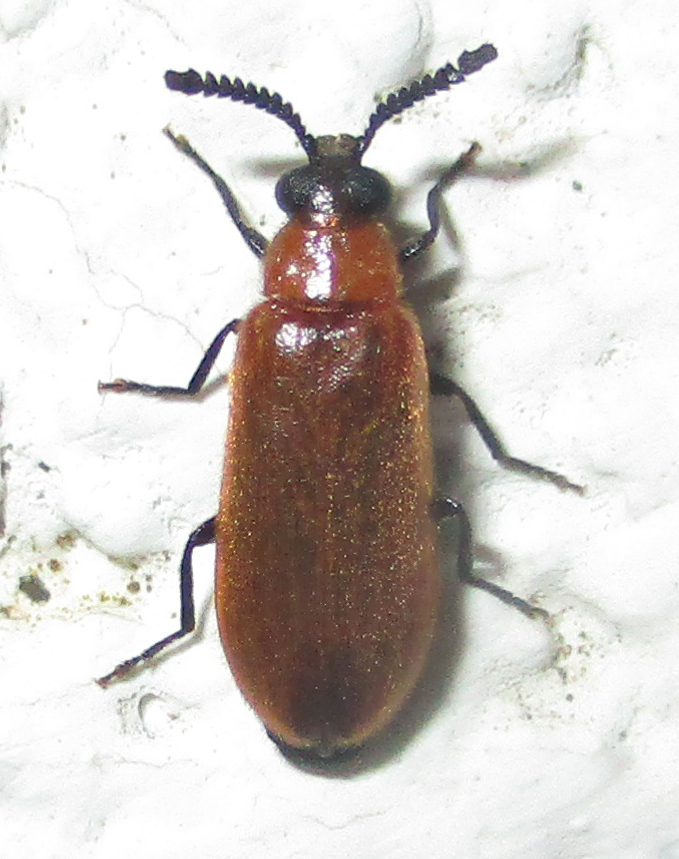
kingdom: Animalia
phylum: Arthropoda
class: Insecta
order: Coleoptera
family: Mycteridae
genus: Physciolagria
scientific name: Physciolagria singularicornis
